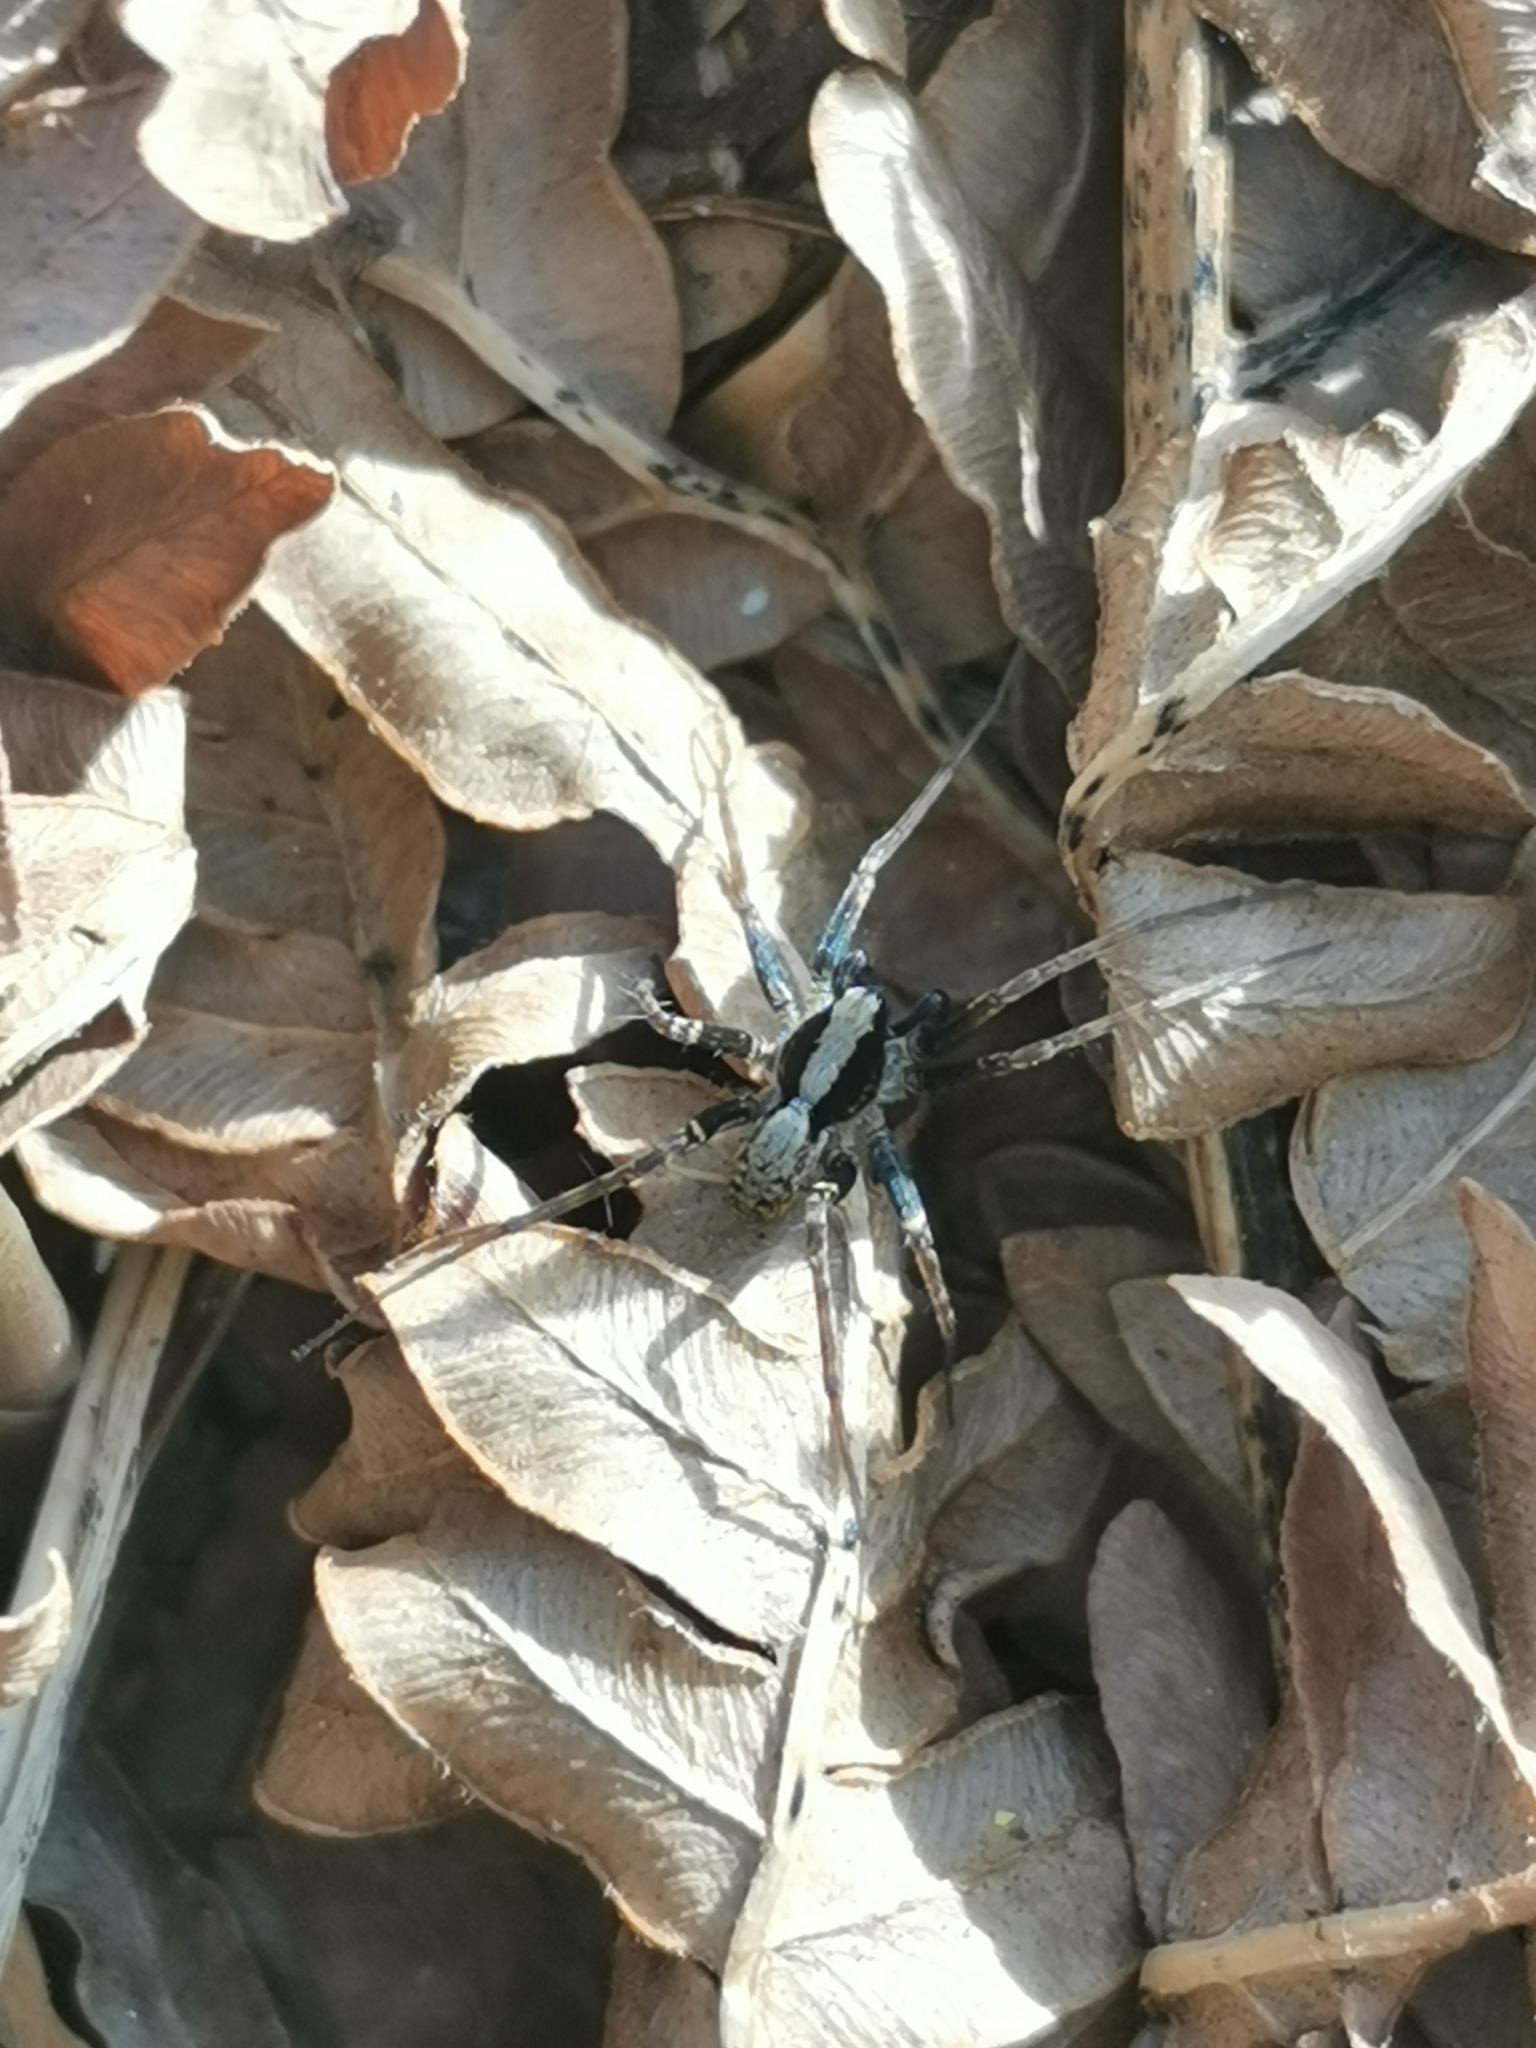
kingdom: Animalia
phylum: Arthropoda
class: Arachnida
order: Araneae
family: Lycosidae
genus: Pardosa
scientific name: Pardosa
